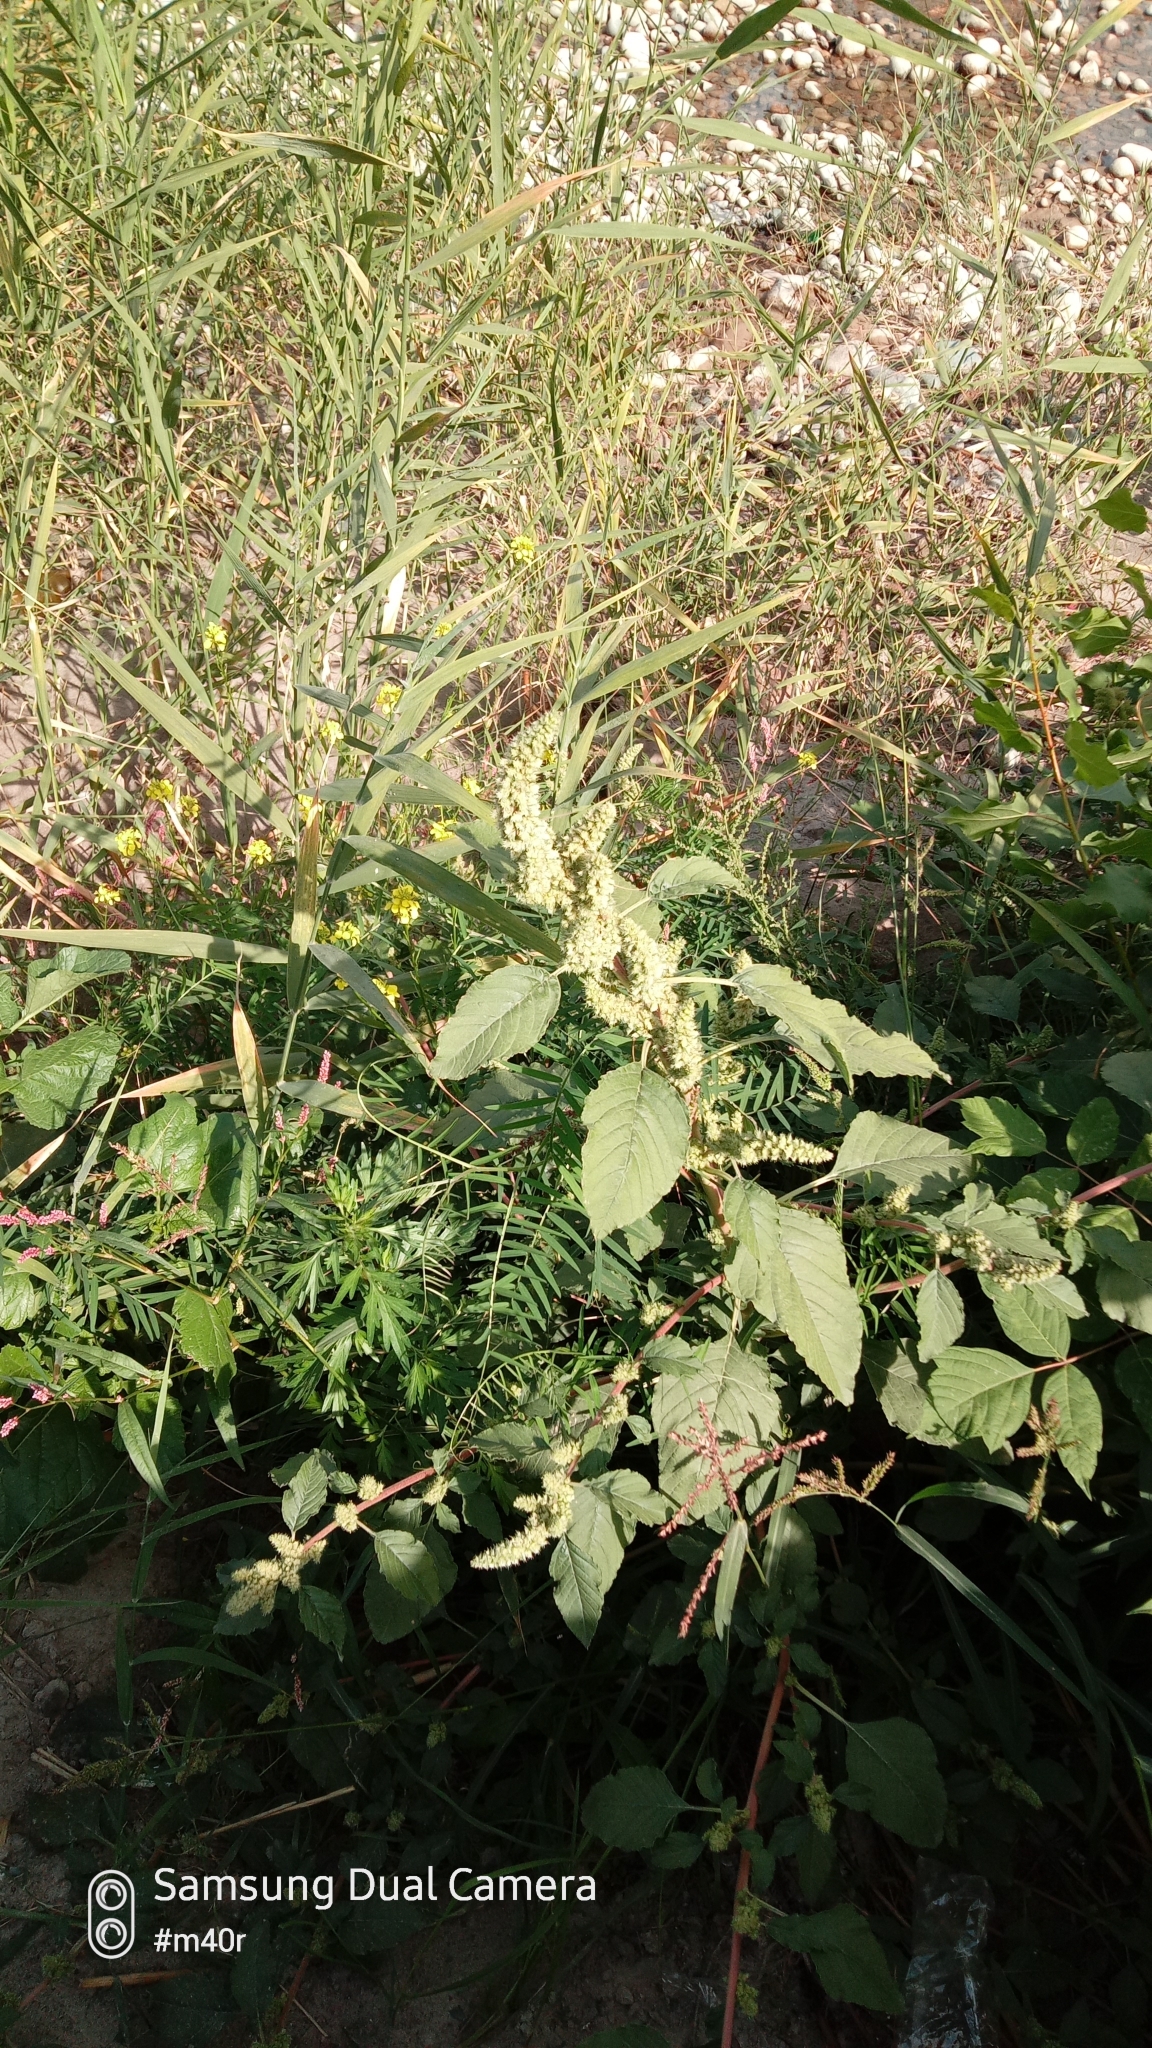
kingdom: Plantae
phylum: Tracheophyta
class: Magnoliopsida
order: Caryophyllales
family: Amaranthaceae
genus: Amaranthus
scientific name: Amaranthus retroflexus
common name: Redroot amaranth
